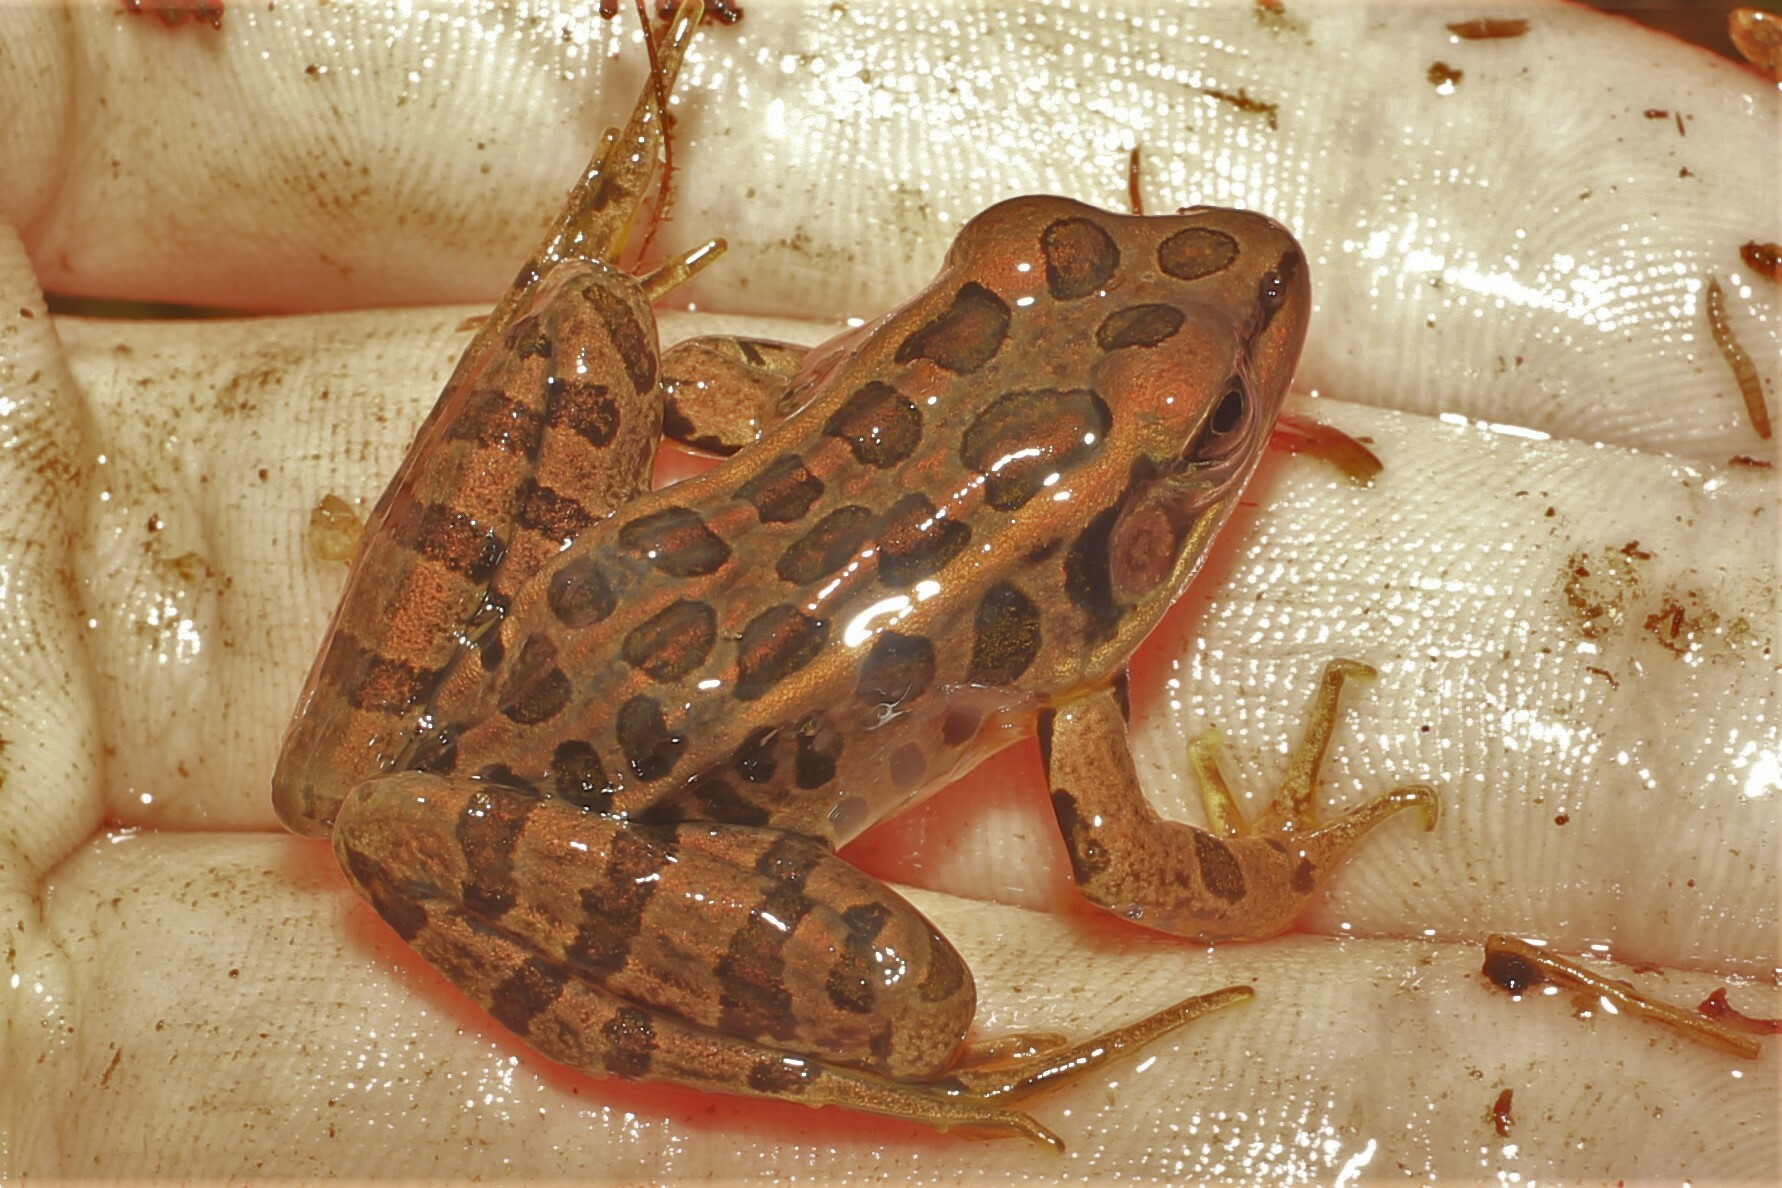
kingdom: Animalia
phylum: Chordata
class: Amphibia
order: Anura
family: Ranidae
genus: Lithobates
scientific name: Lithobates palustris
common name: Pickerel frog
